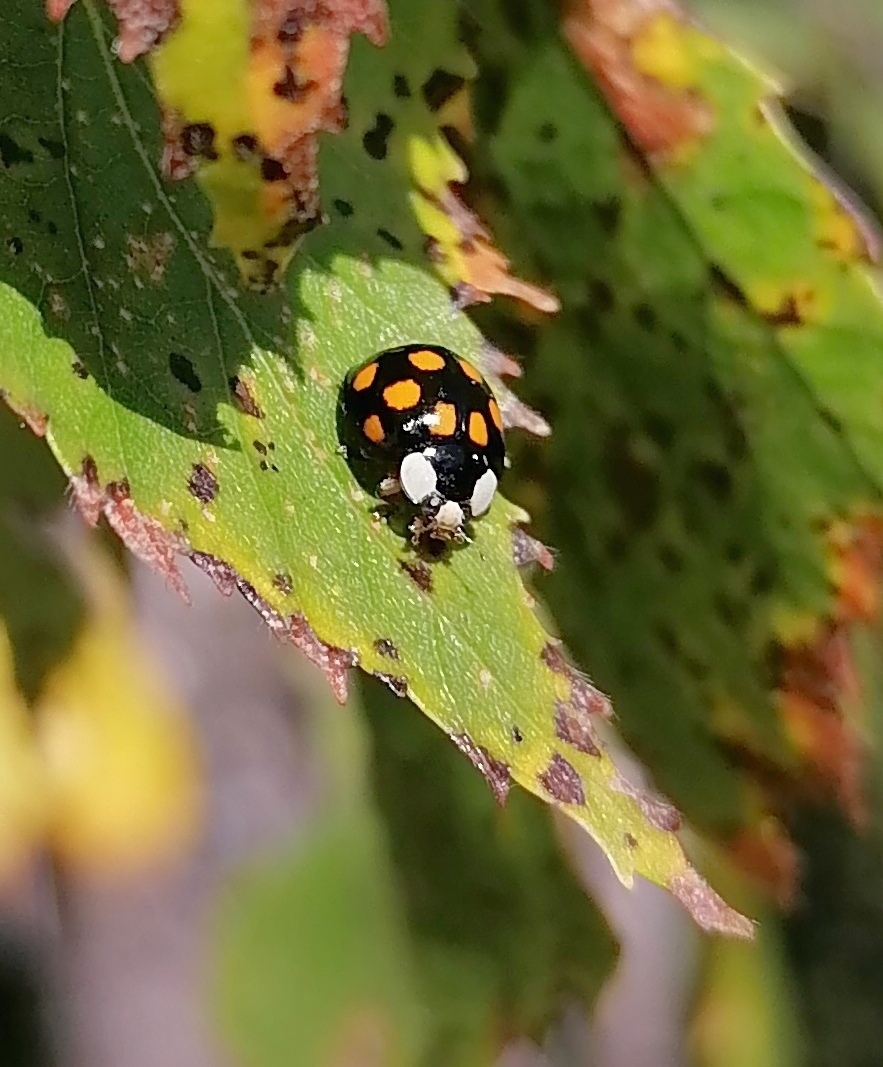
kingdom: Animalia
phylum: Arthropoda
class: Insecta
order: Coleoptera
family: Coccinellidae
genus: Harmonia
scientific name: Harmonia axyridis
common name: Harlequin ladybird
